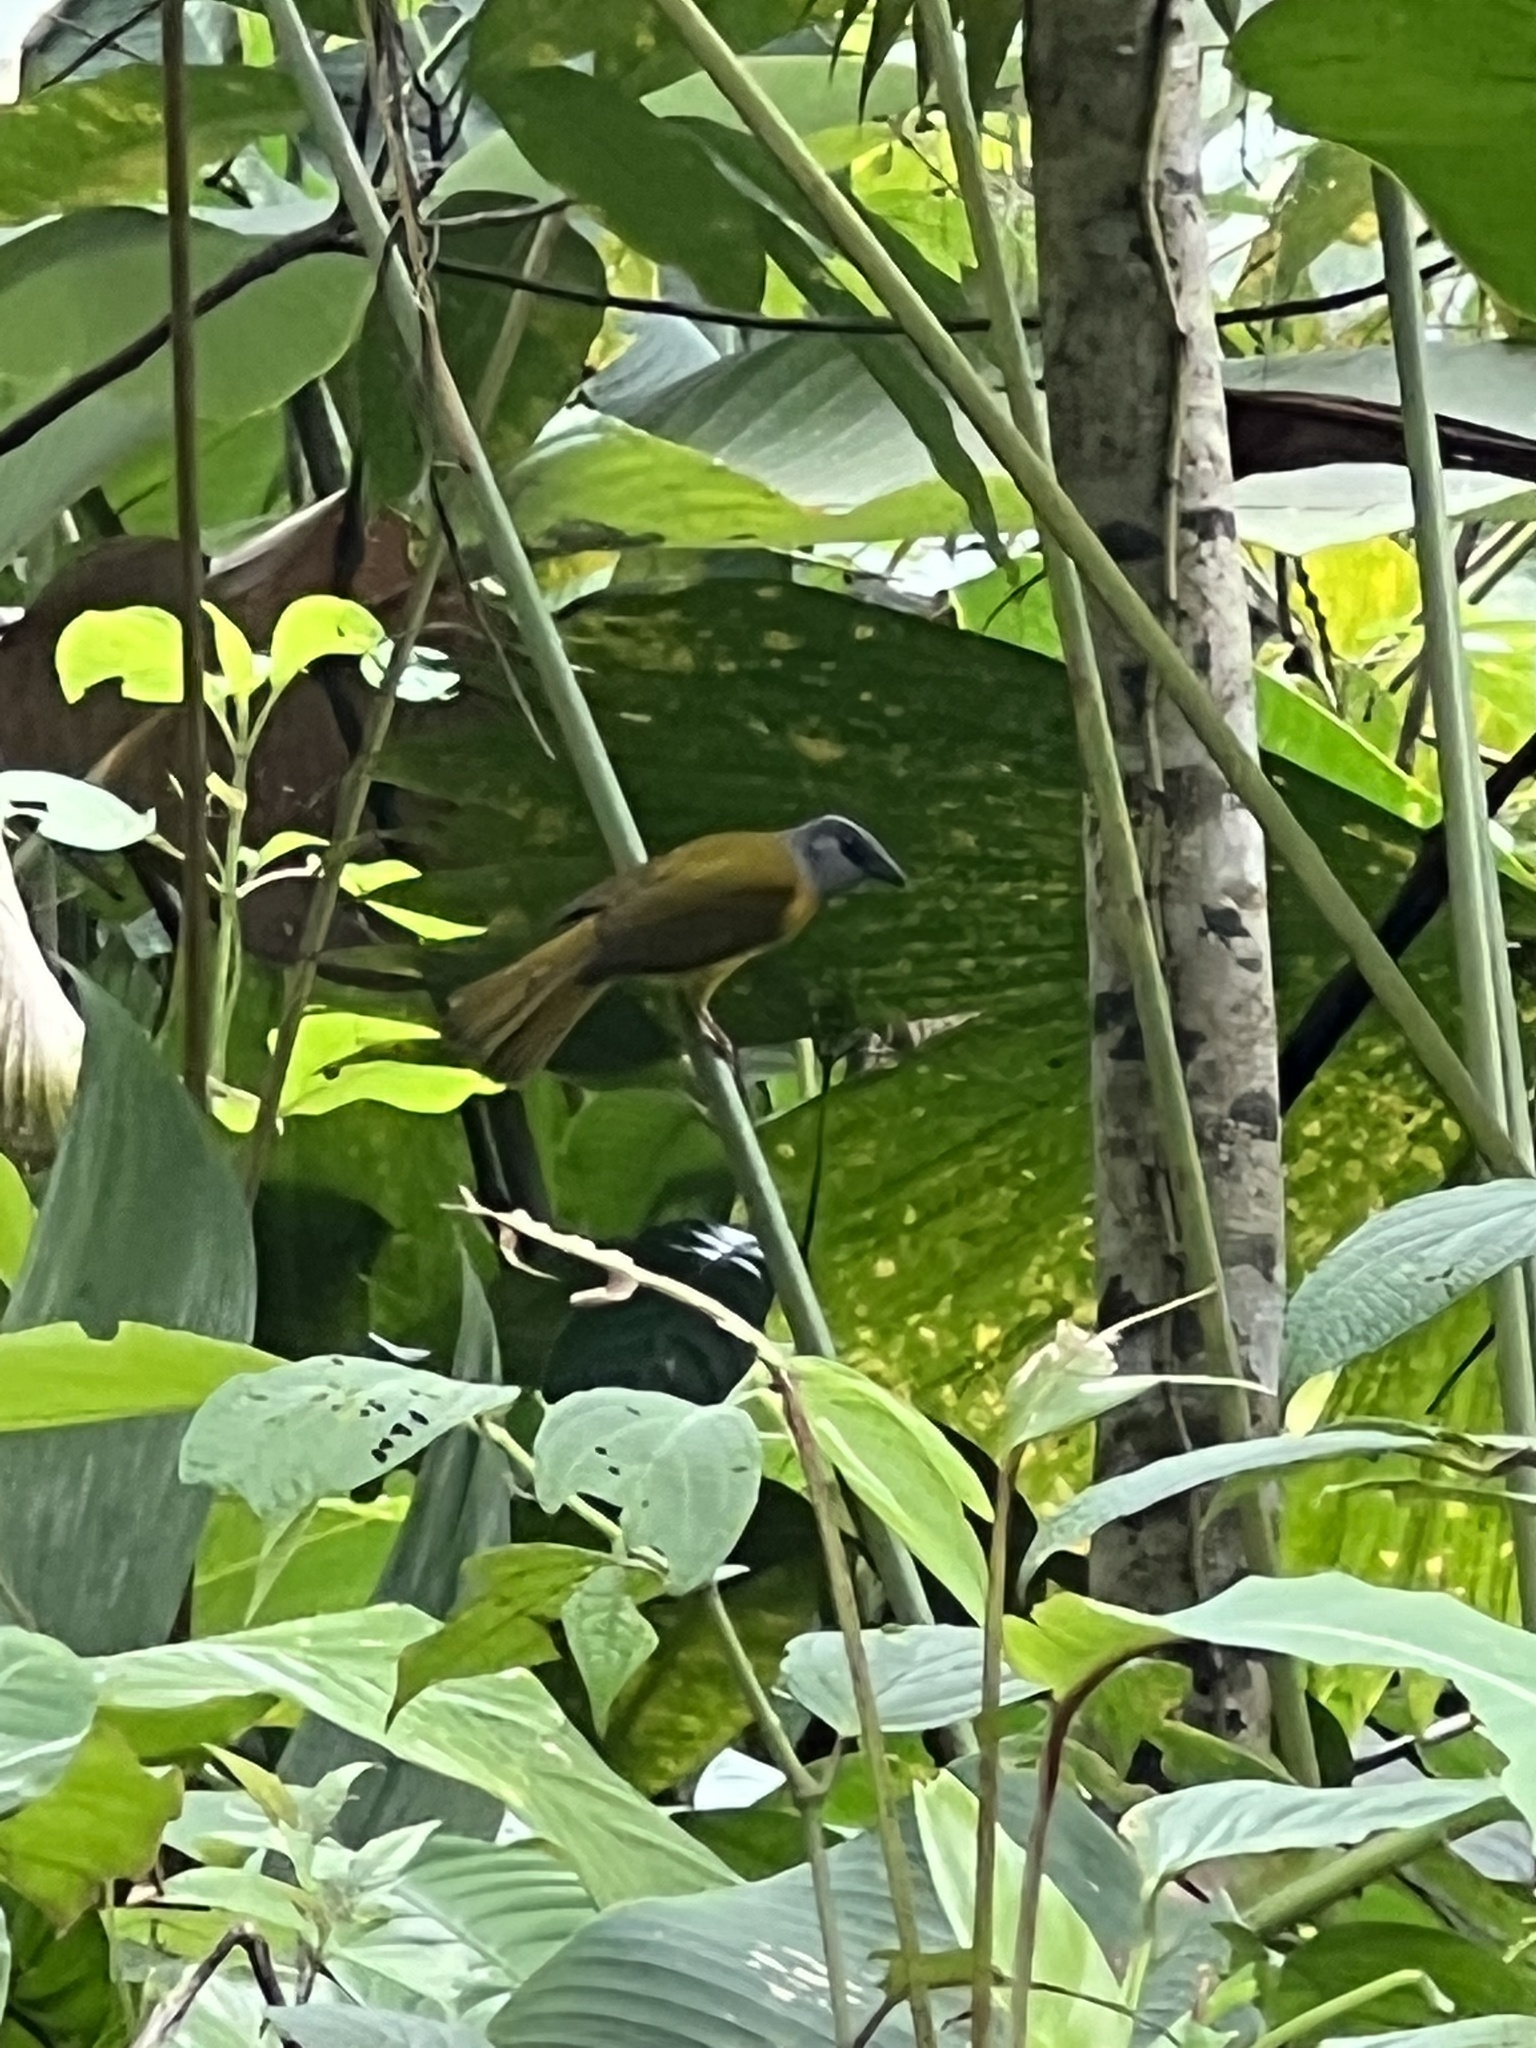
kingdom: Animalia
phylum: Chordata
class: Aves
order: Passeriformes
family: Thraupidae
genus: Eucometis
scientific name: Eucometis penicillata
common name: Grey-headed tanager
